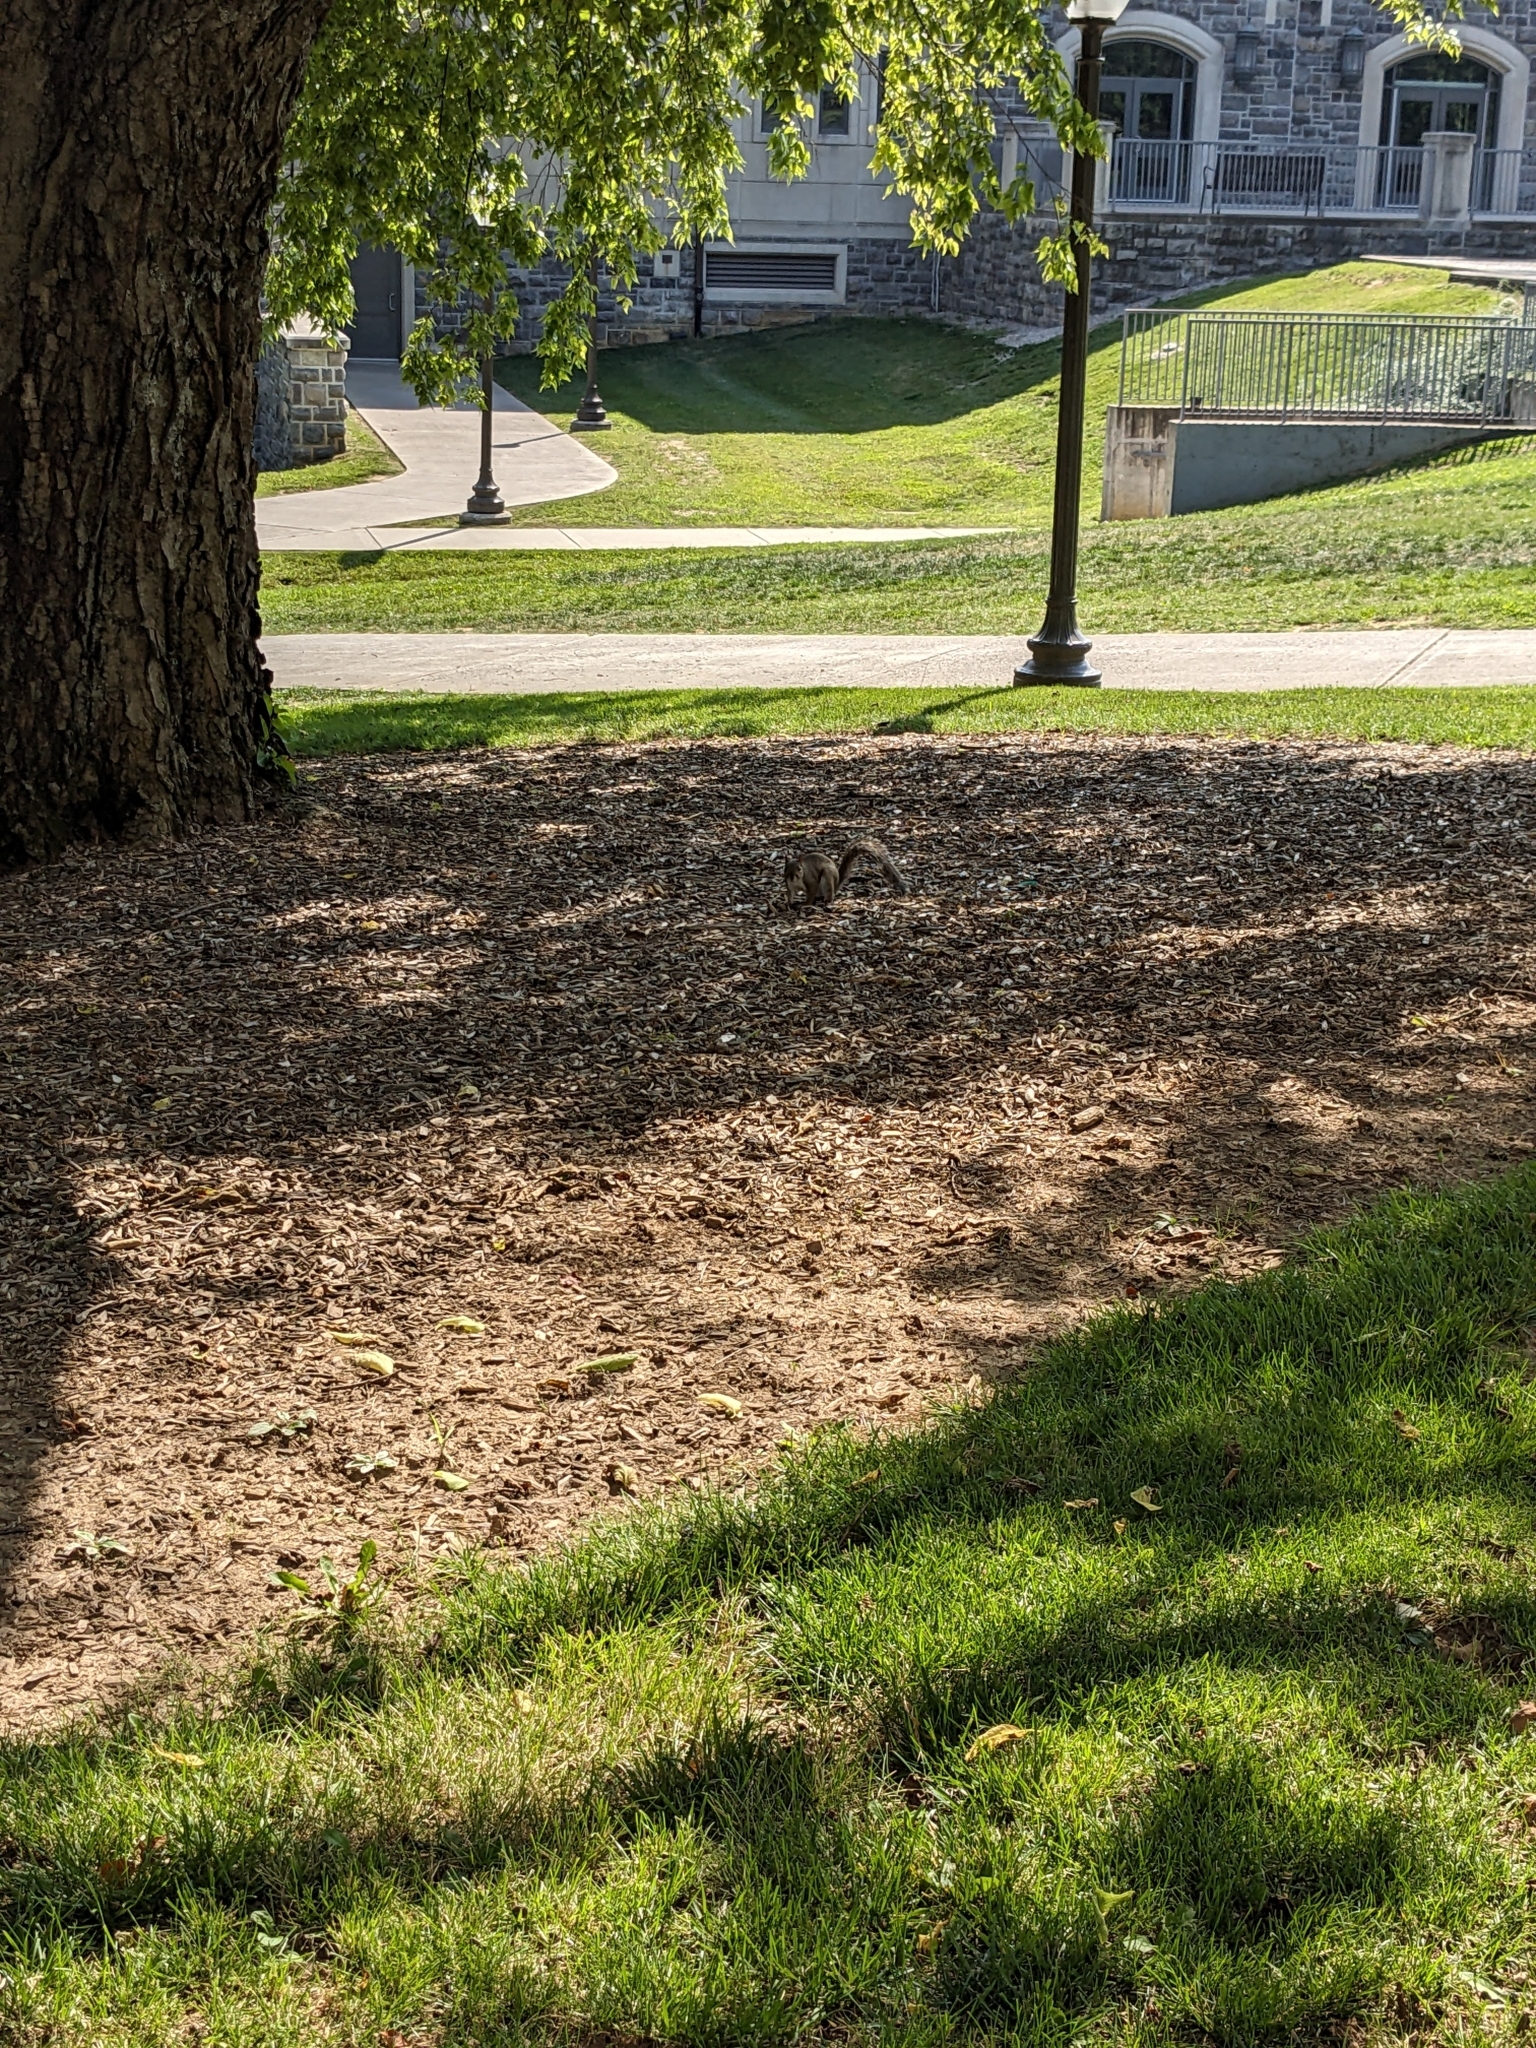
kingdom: Animalia
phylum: Chordata
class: Mammalia
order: Rodentia
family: Sciuridae
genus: Sciurus
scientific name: Sciurus carolinensis
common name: Eastern gray squirrel
